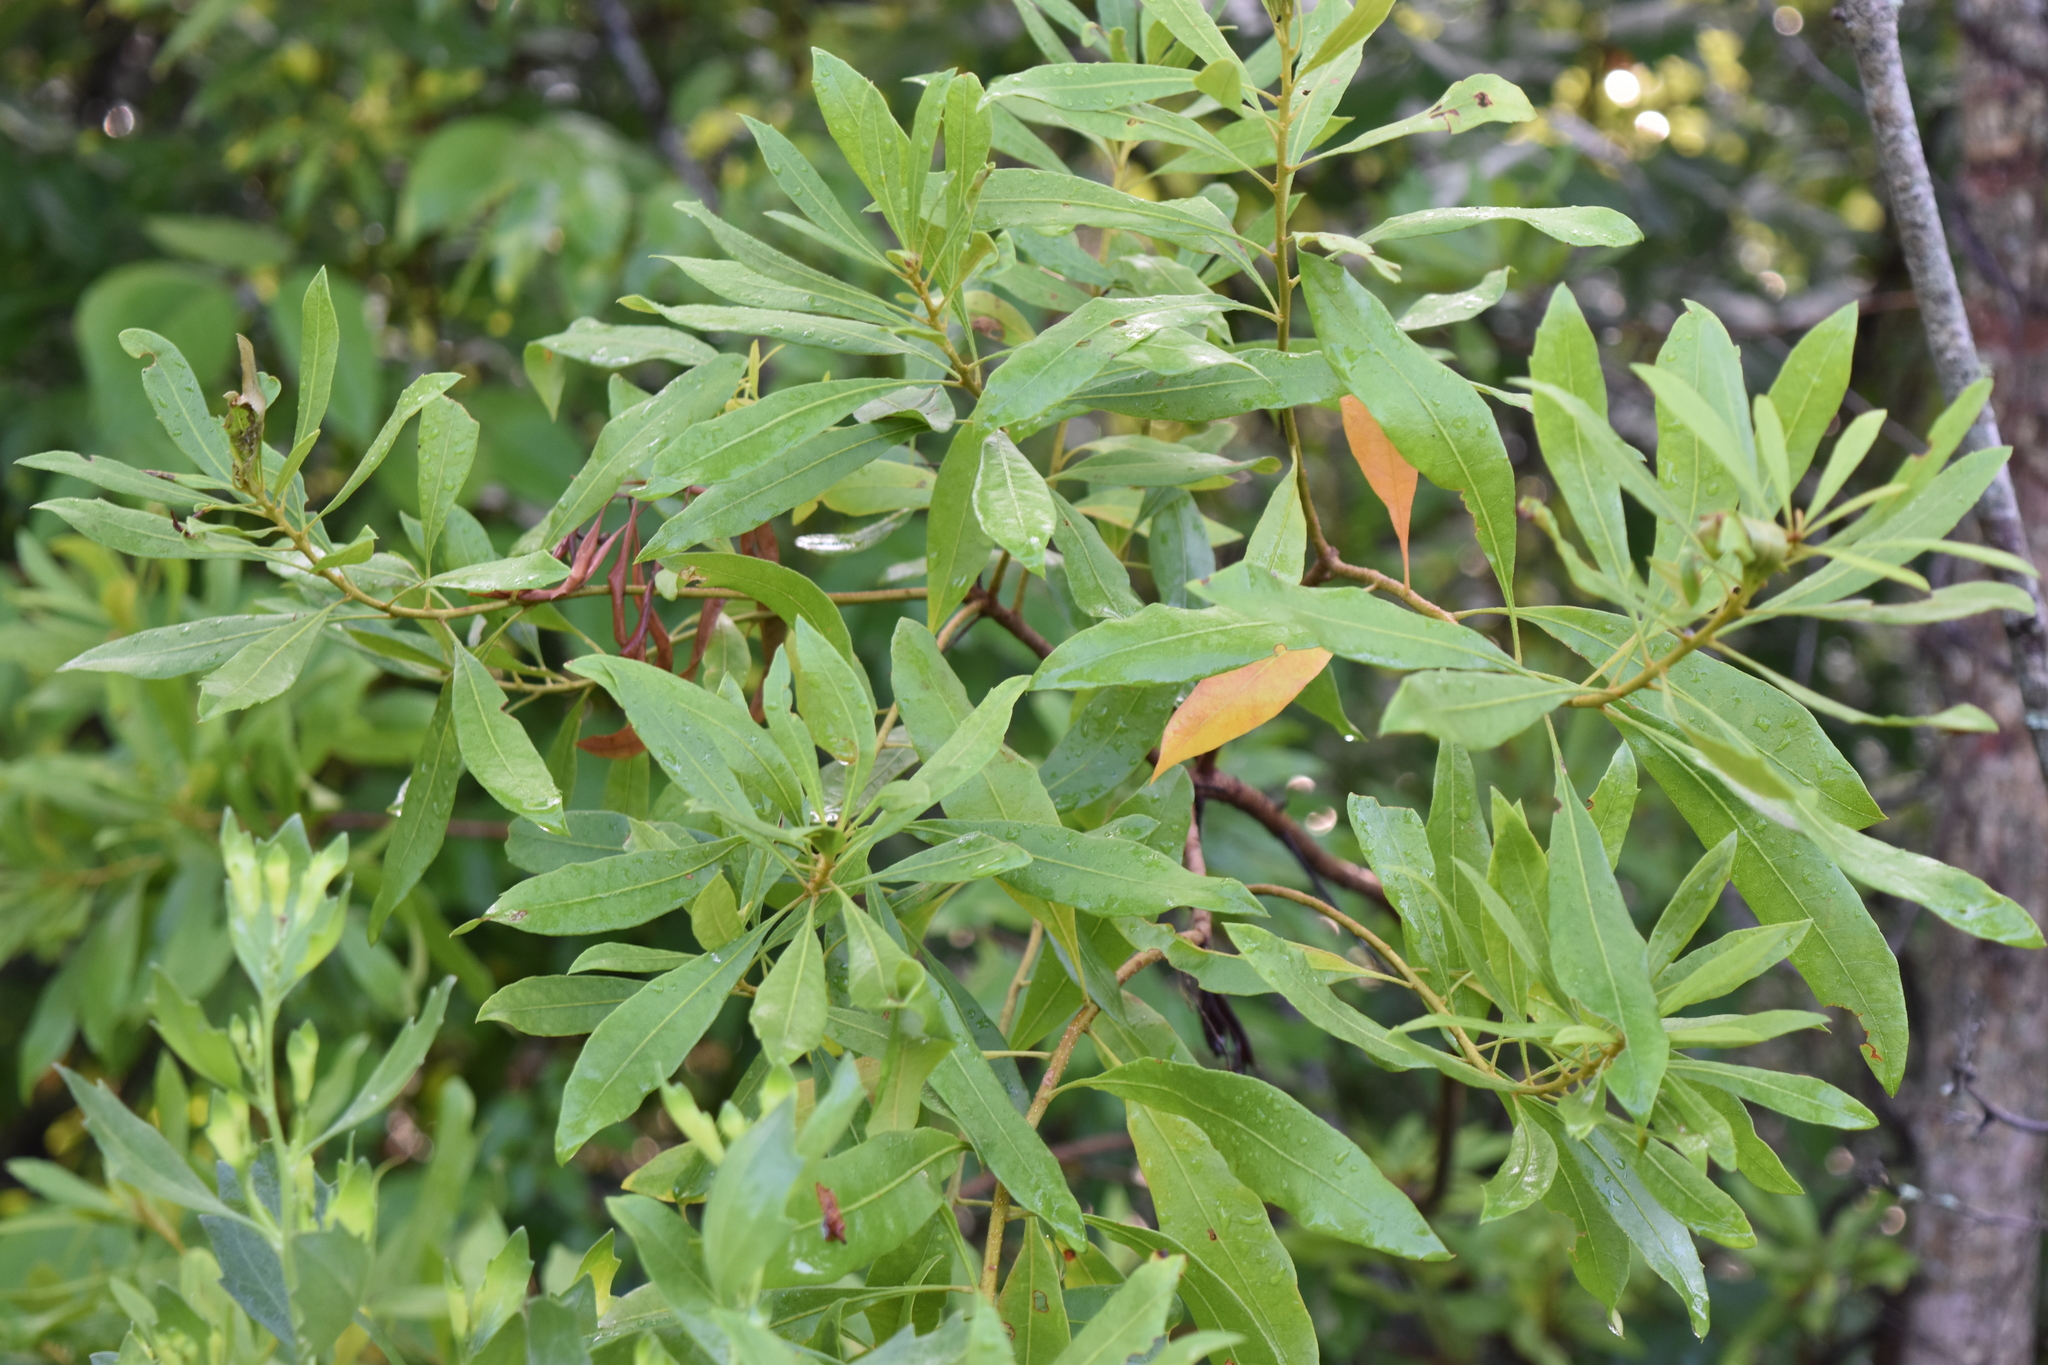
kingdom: Plantae
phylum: Tracheophyta
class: Magnoliopsida
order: Fagales
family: Myricaceae
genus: Morella
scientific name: Morella cerifera
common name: Wax myrtle
